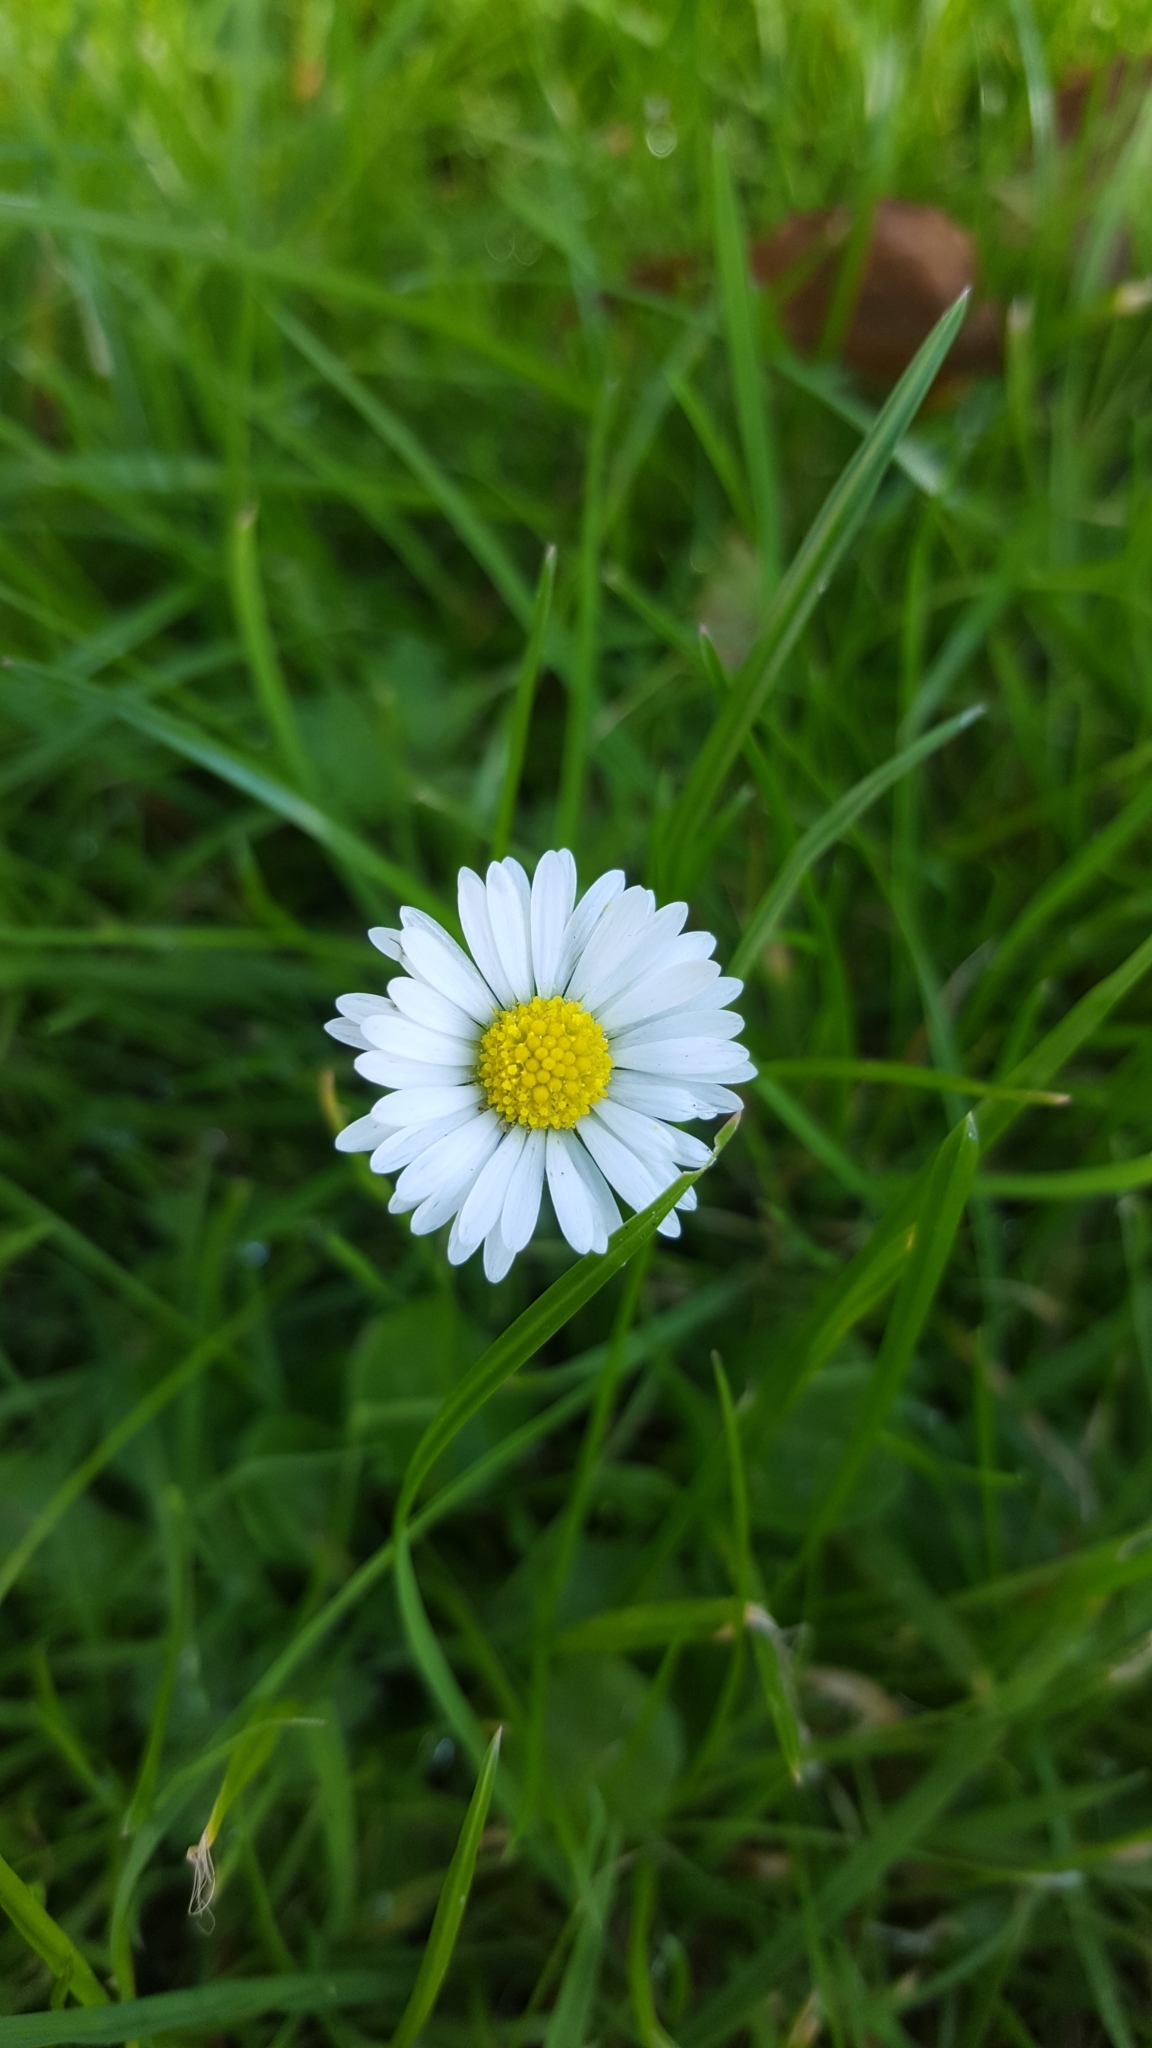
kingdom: Plantae
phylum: Tracheophyta
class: Magnoliopsida
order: Asterales
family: Asteraceae
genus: Bellis
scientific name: Bellis perennis
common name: Lawndaisy
